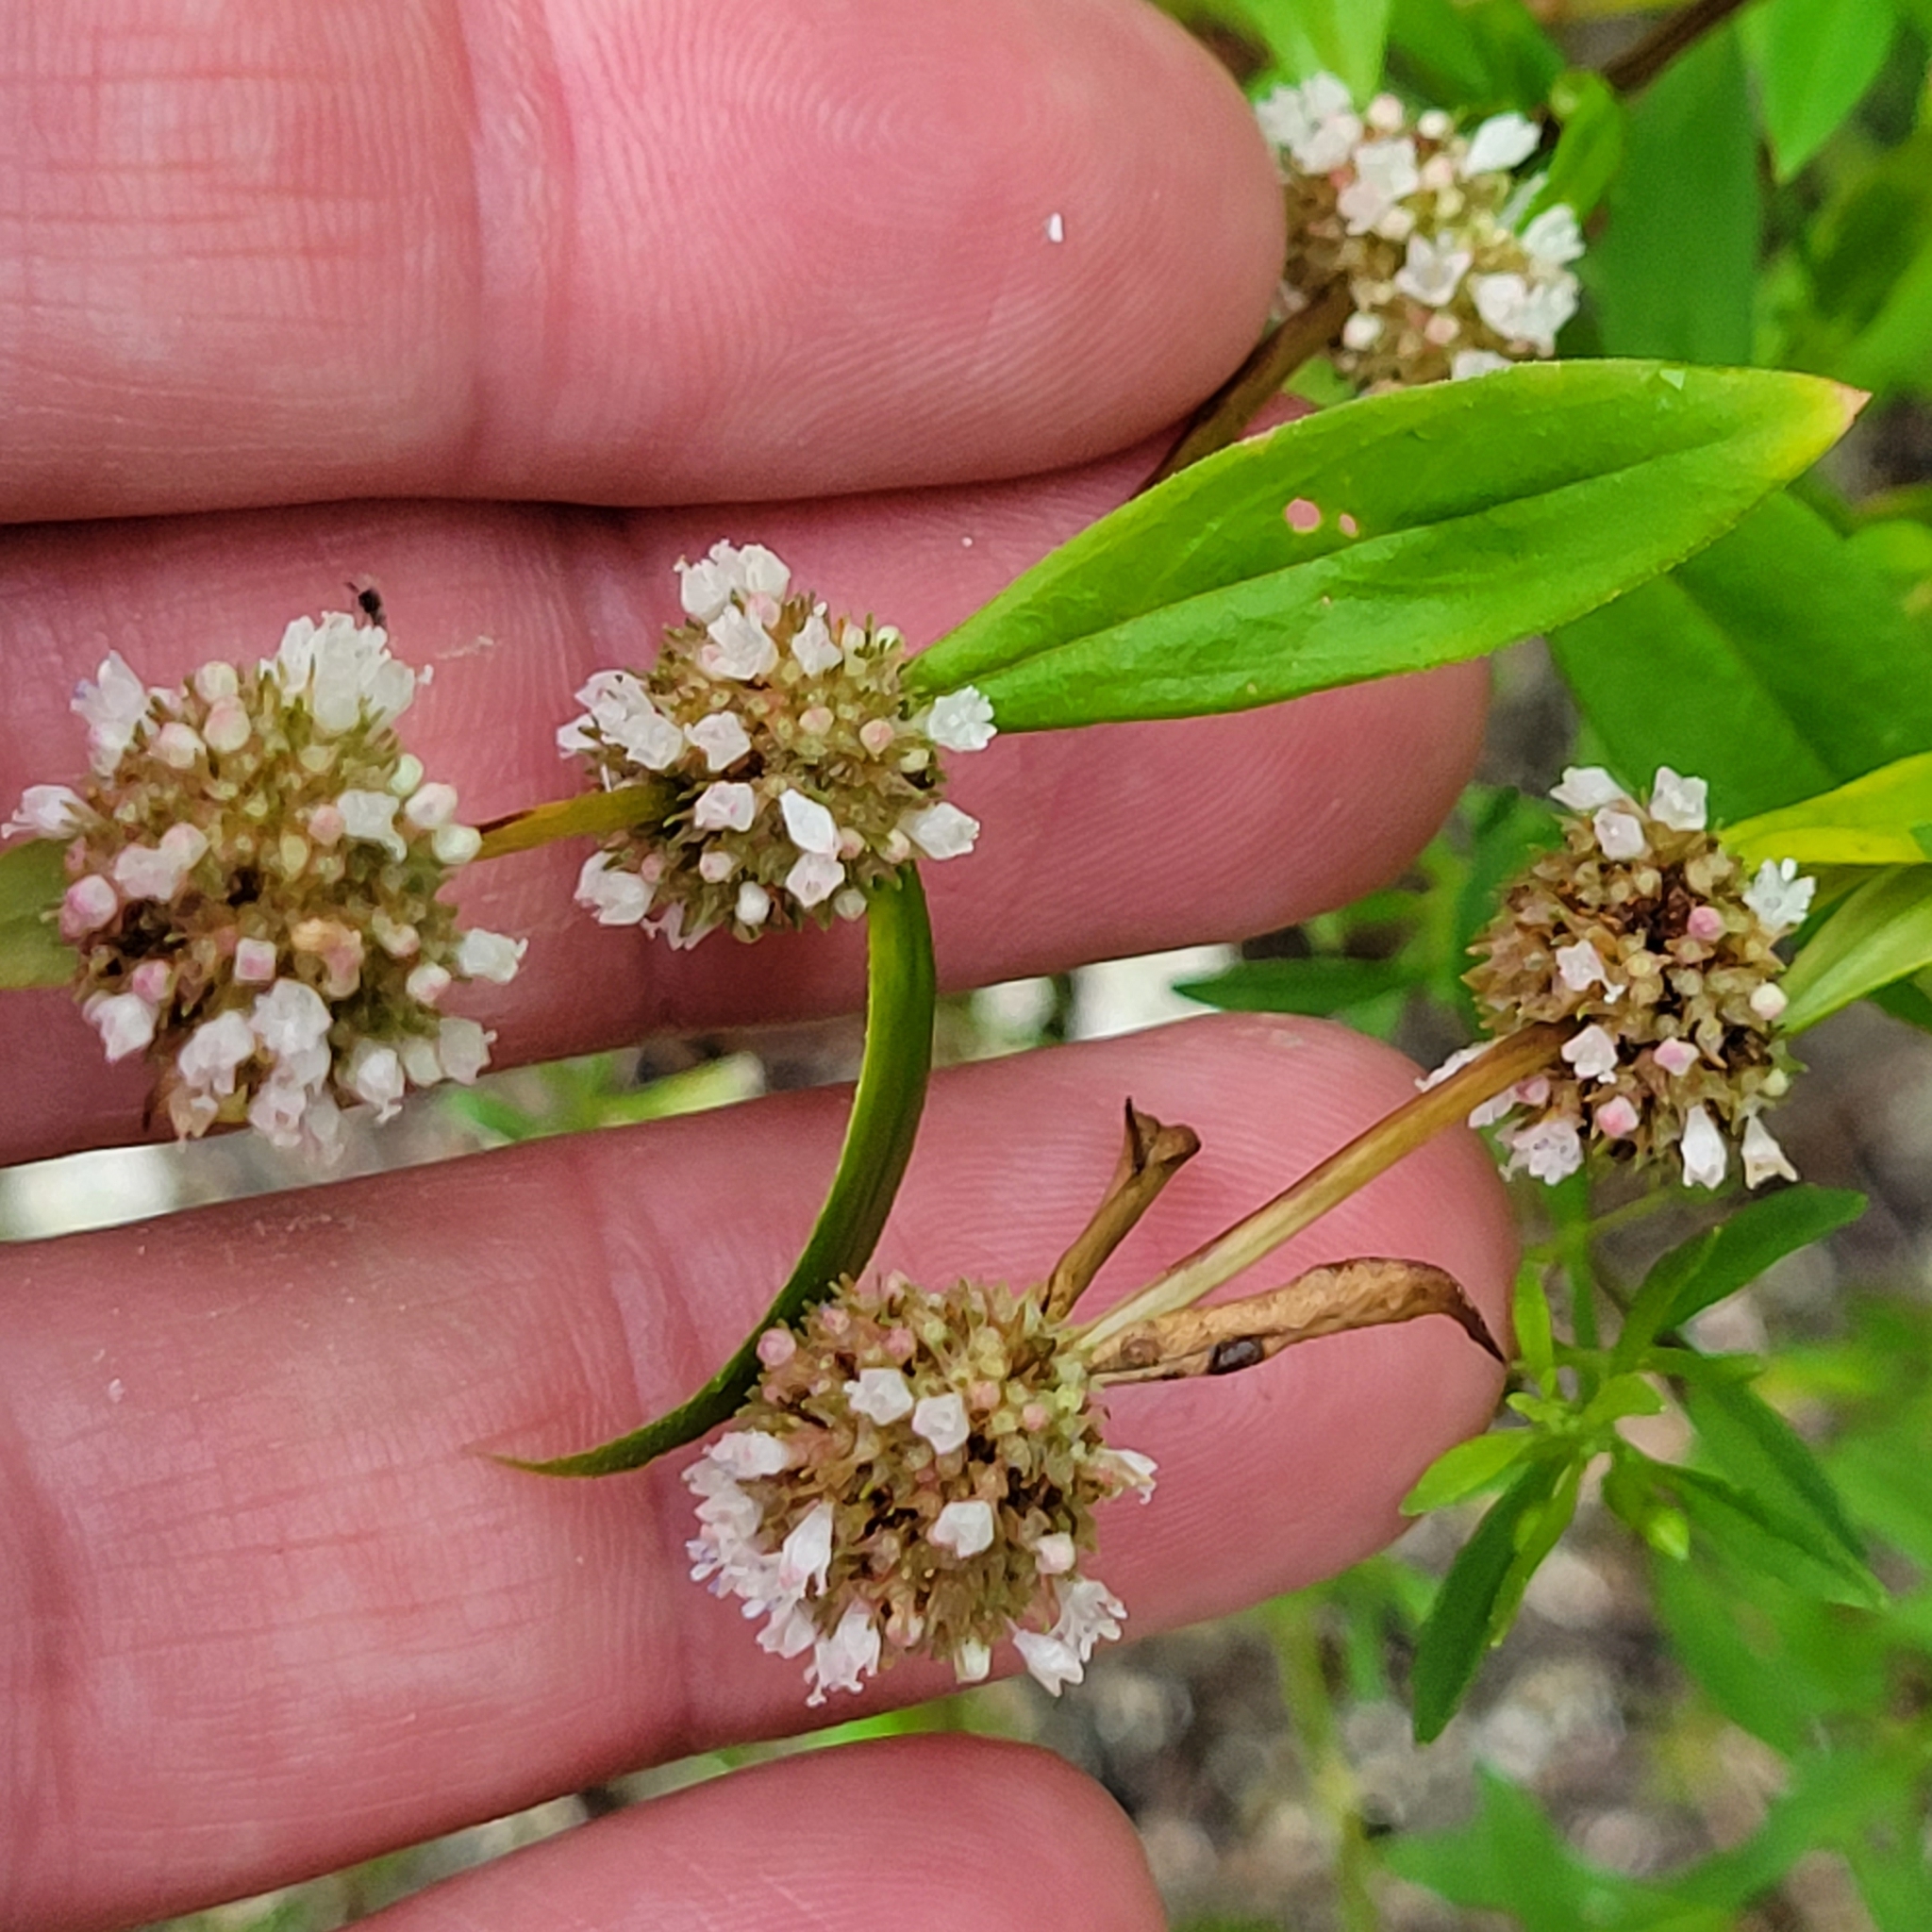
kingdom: Plantae
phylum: Tracheophyta
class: Magnoliopsida
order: Gentianales
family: Rubiaceae
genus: Spermacoce
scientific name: Spermacoce verticillata
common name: Shrubby false buttonweed
